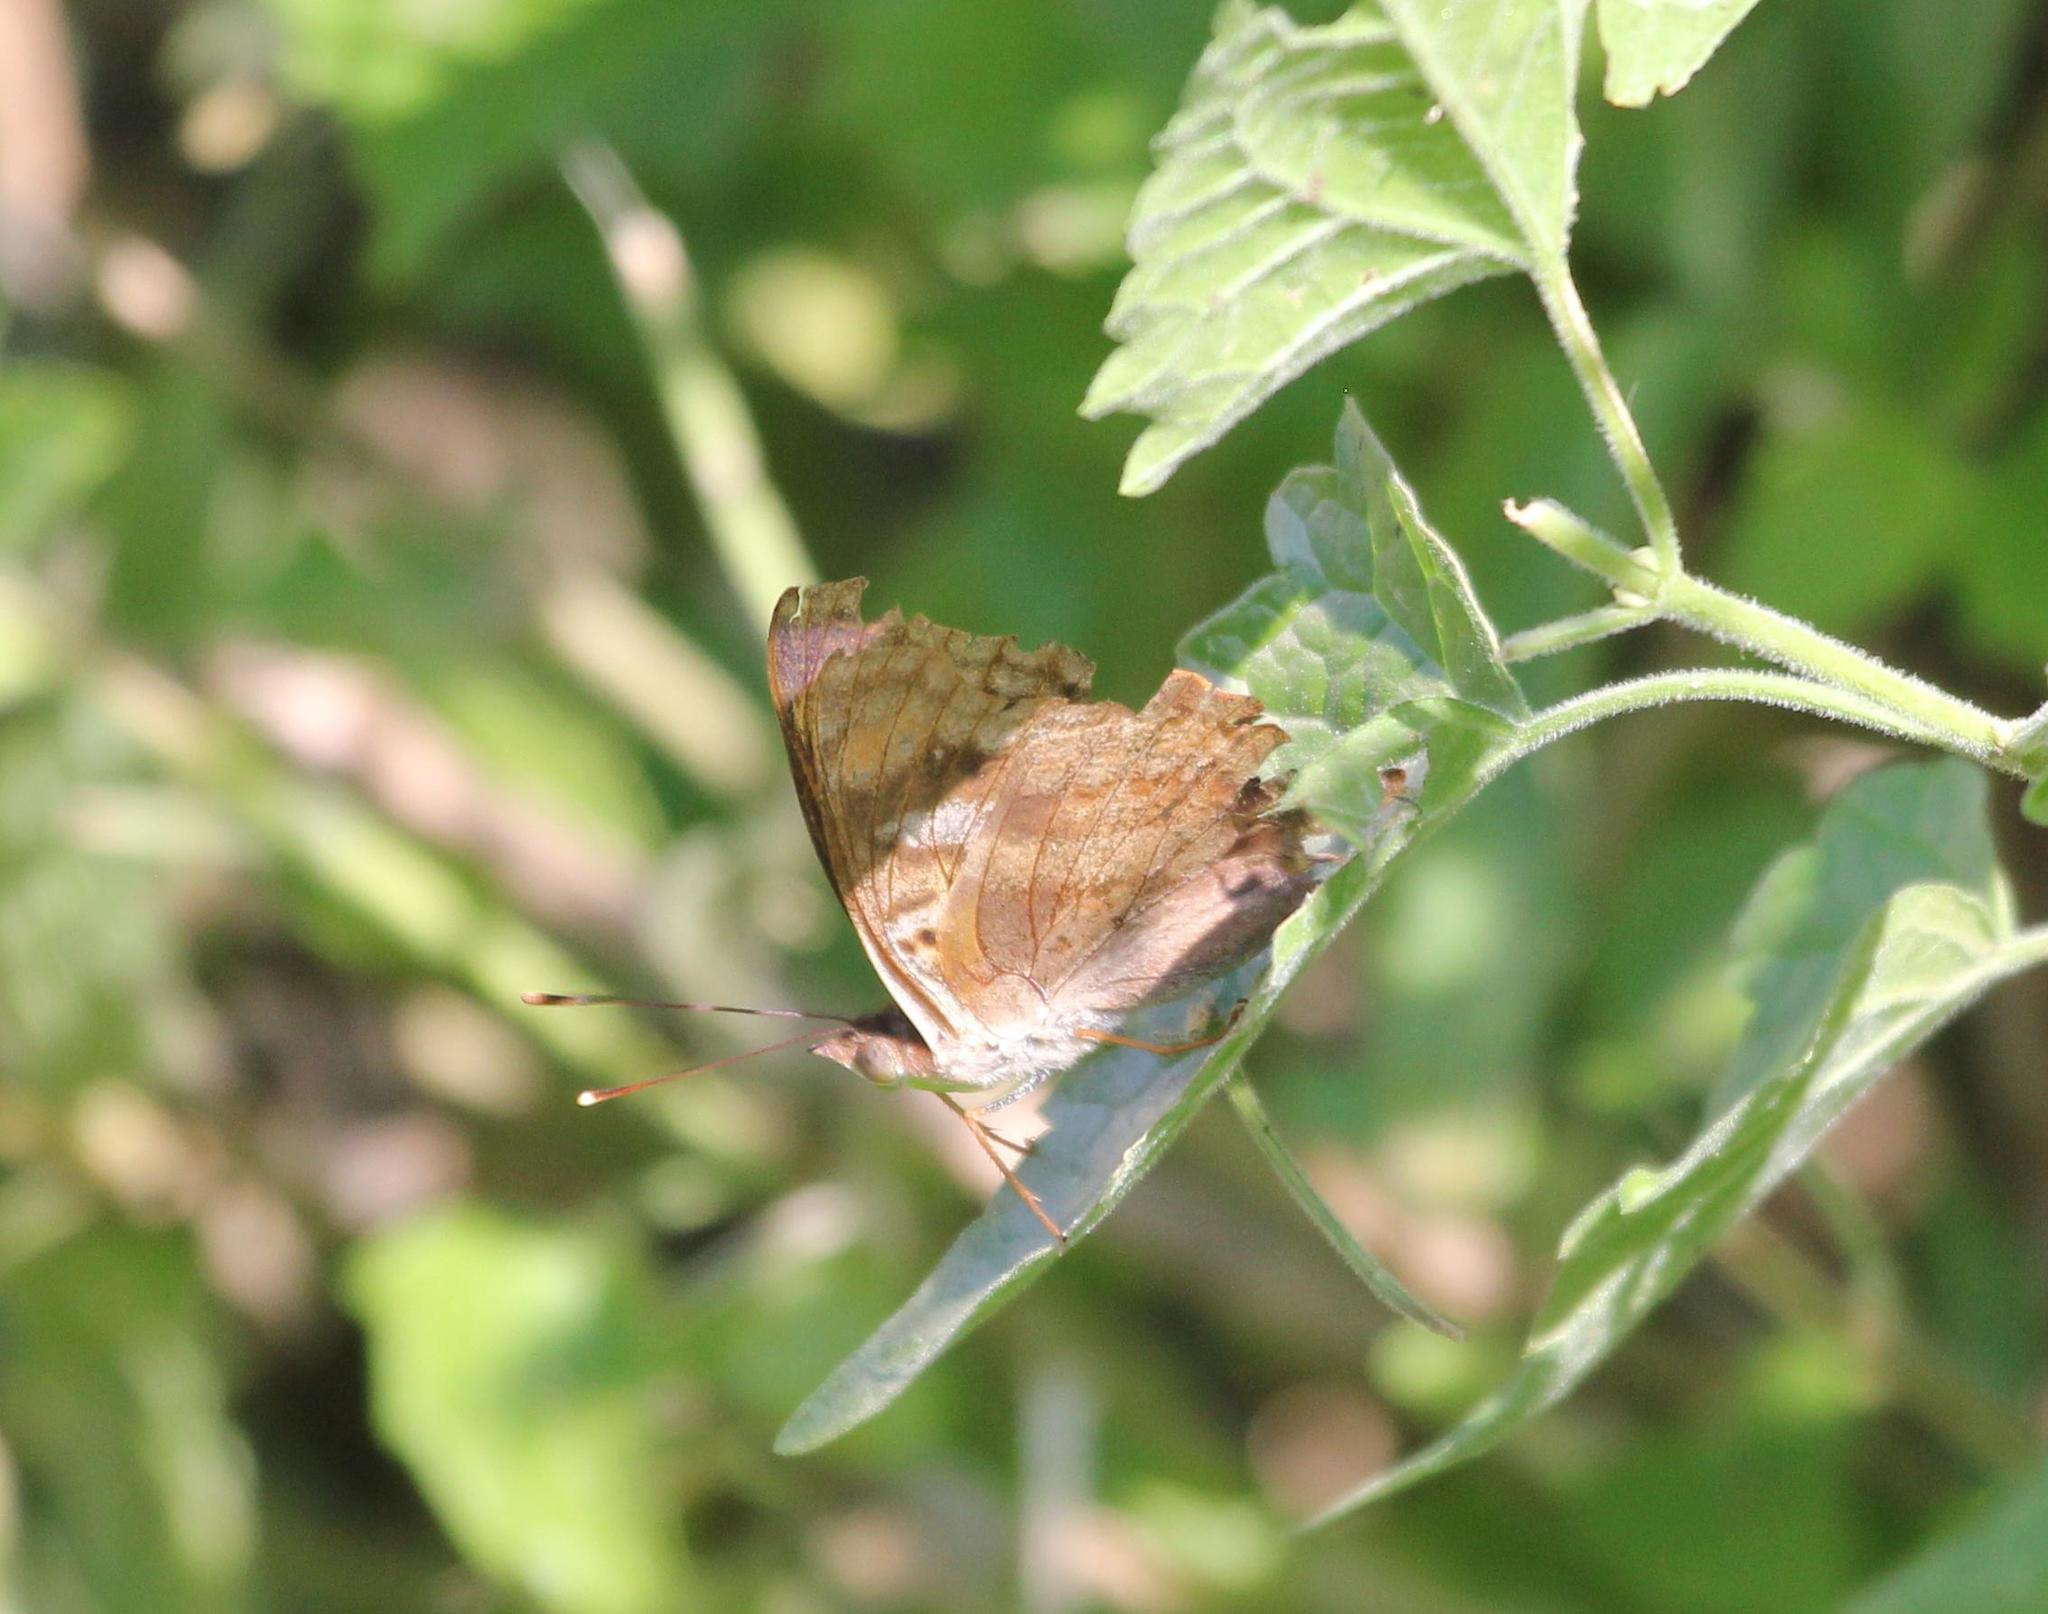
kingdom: Animalia
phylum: Arthropoda
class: Insecta
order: Lepidoptera
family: Nymphalidae
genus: Doxocopa
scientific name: Doxocopa pavon
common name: Pavon emperor
